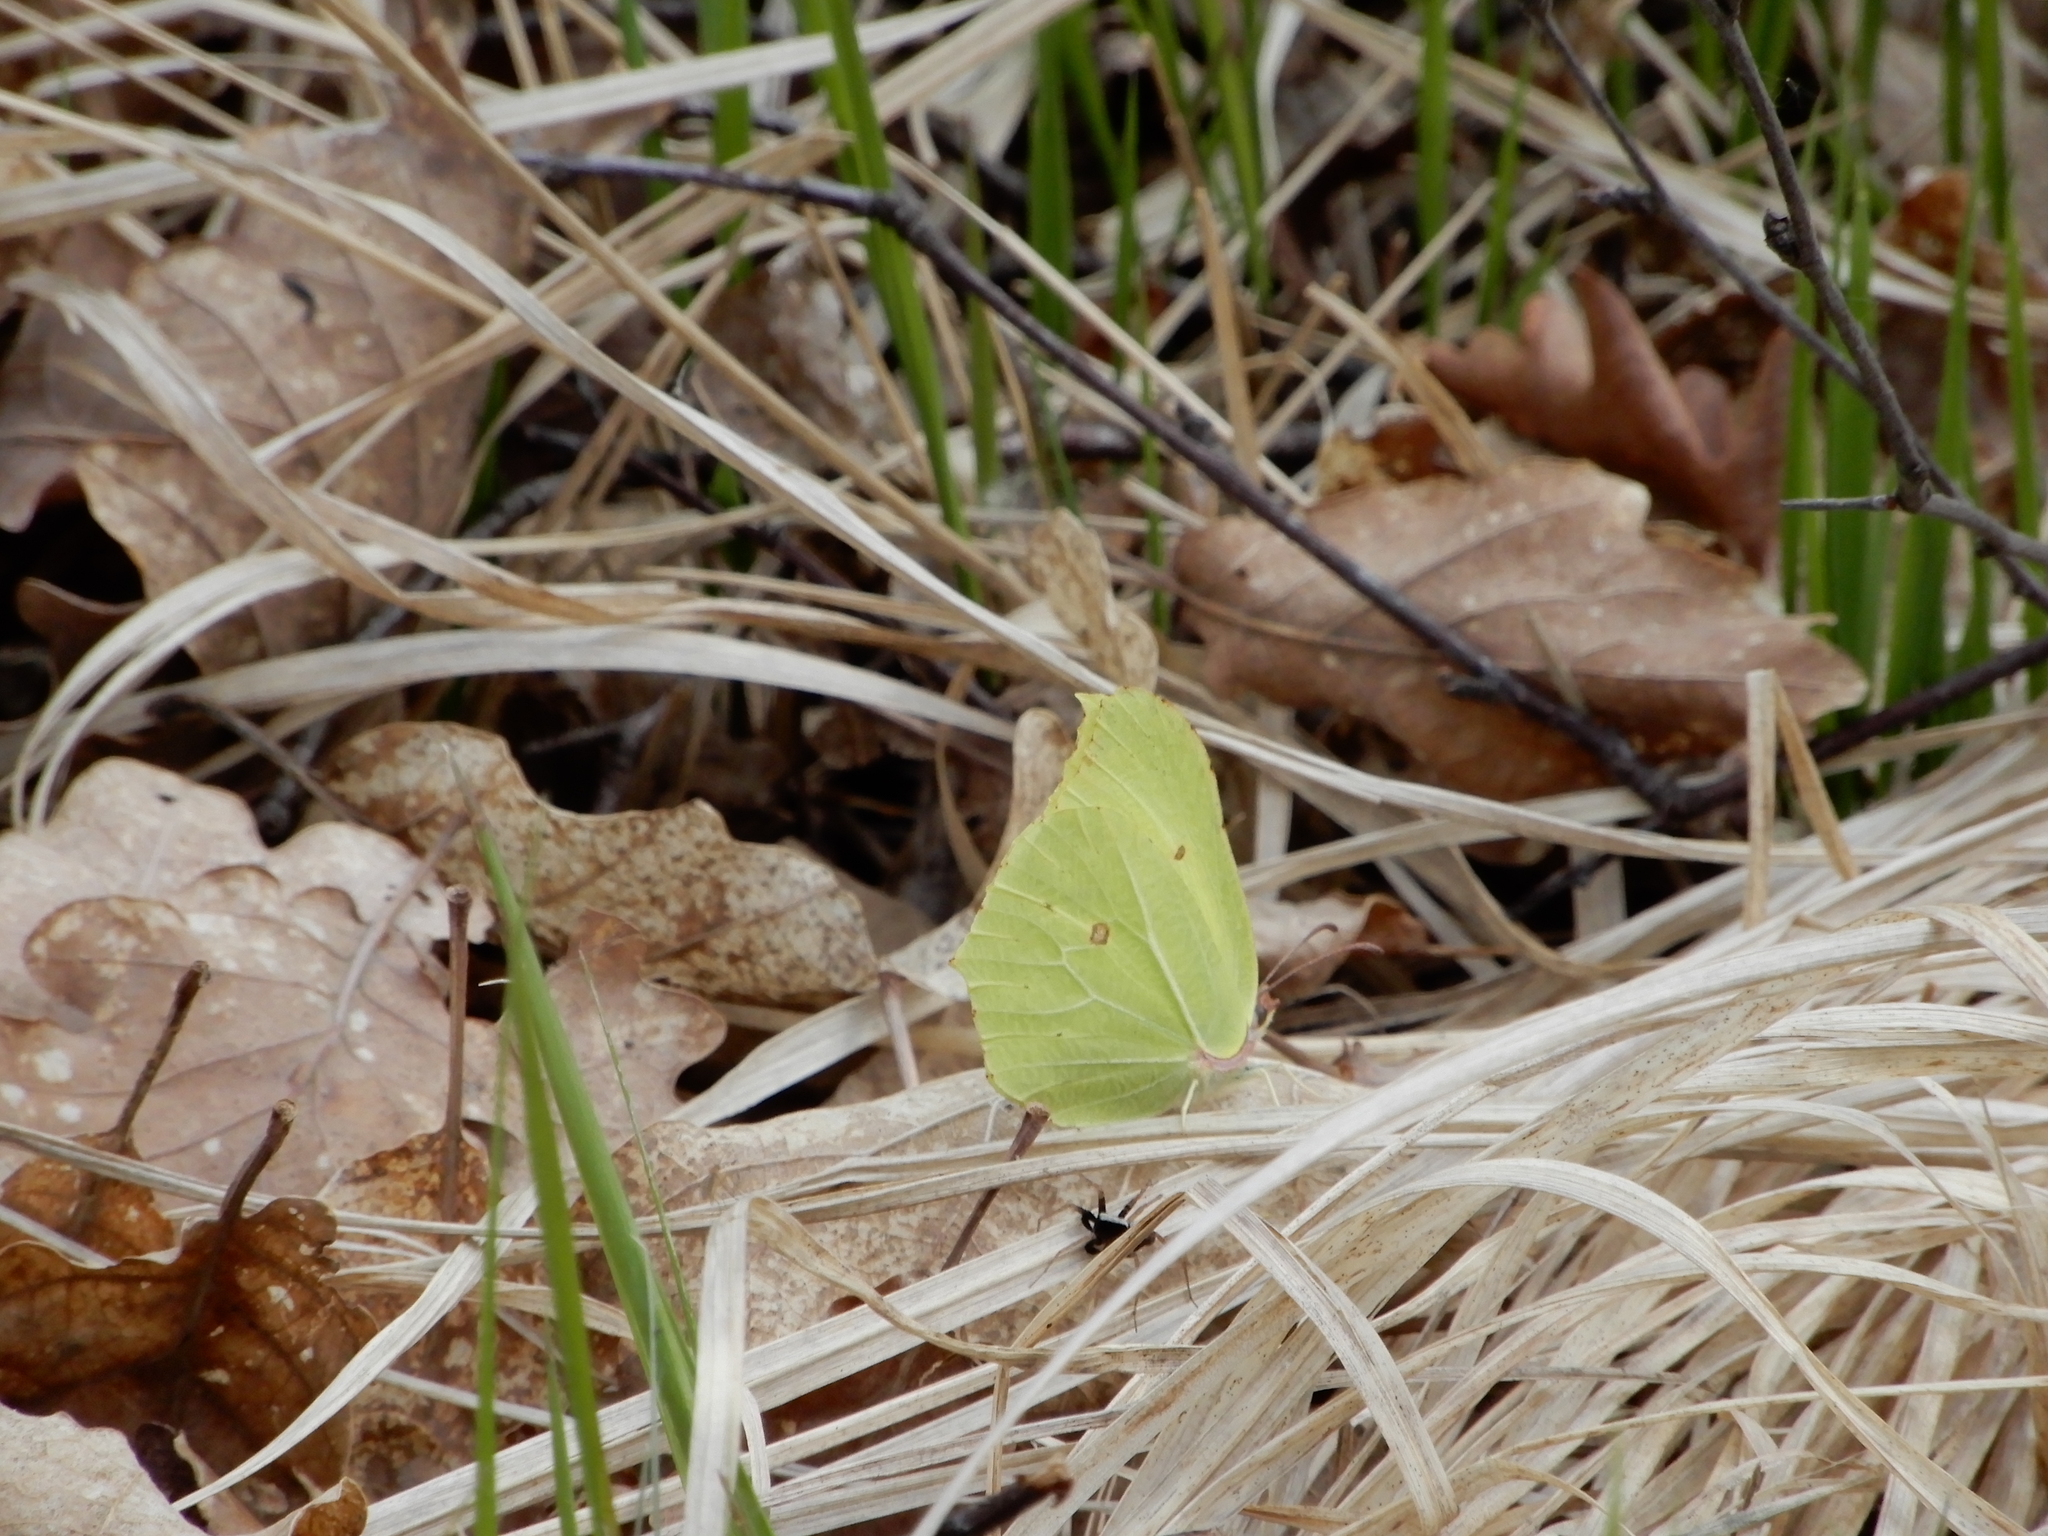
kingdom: Animalia
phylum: Arthropoda
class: Insecta
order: Lepidoptera
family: Pieridae
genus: Gonepteryx
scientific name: Gonepteryx rhamni
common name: Brimstone
